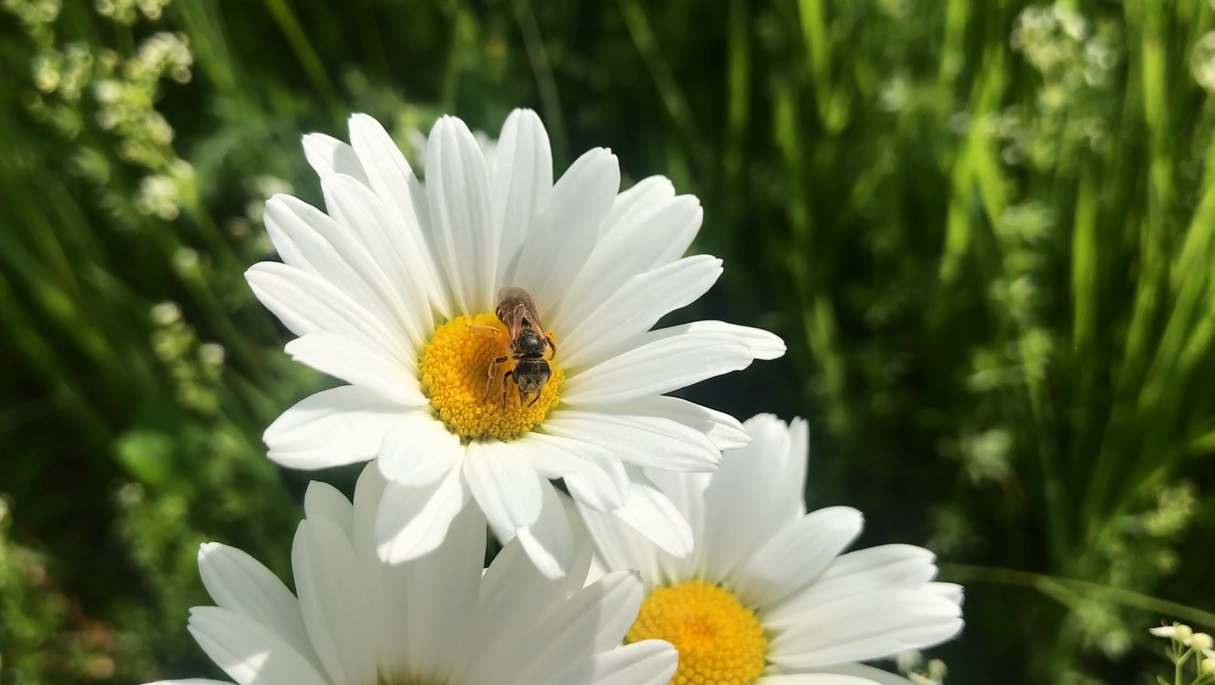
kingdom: Animalia
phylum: Arthropoda
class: Insecta
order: Hymenoptera
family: Halictidae
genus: Halictus
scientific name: Halictus ligatus
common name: Ligated furrow bee
